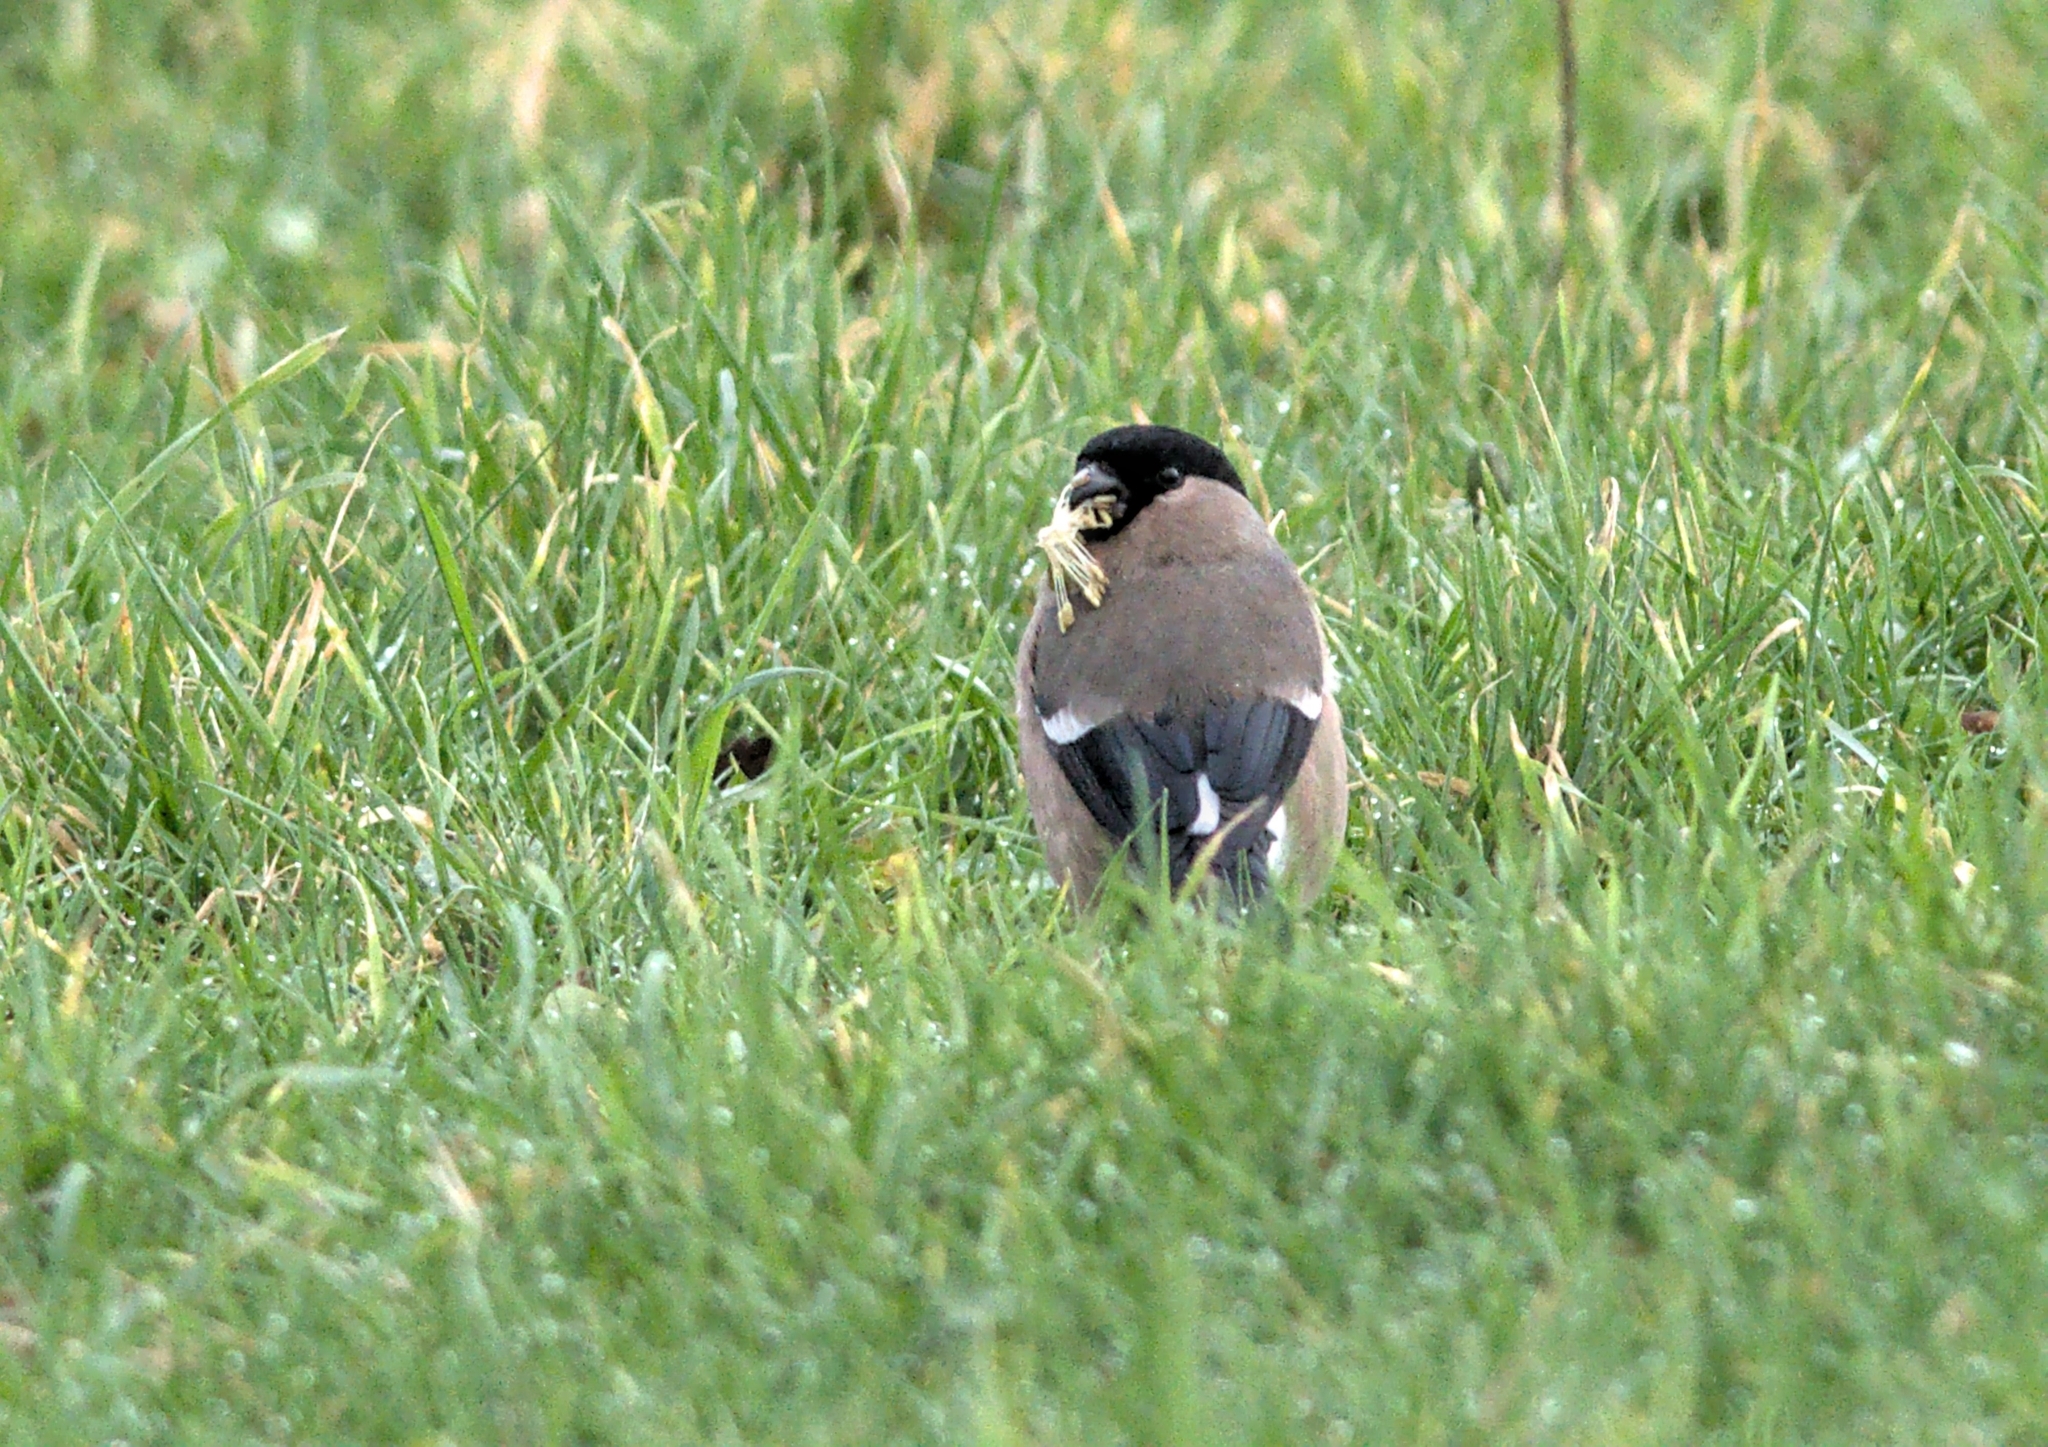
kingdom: Animalia
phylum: Chordata
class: Aves
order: Passeriformes
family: Fringillidae
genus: Pyrrhula
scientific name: Pyrrhula pyrrhula
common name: Eurasian bullfinch
